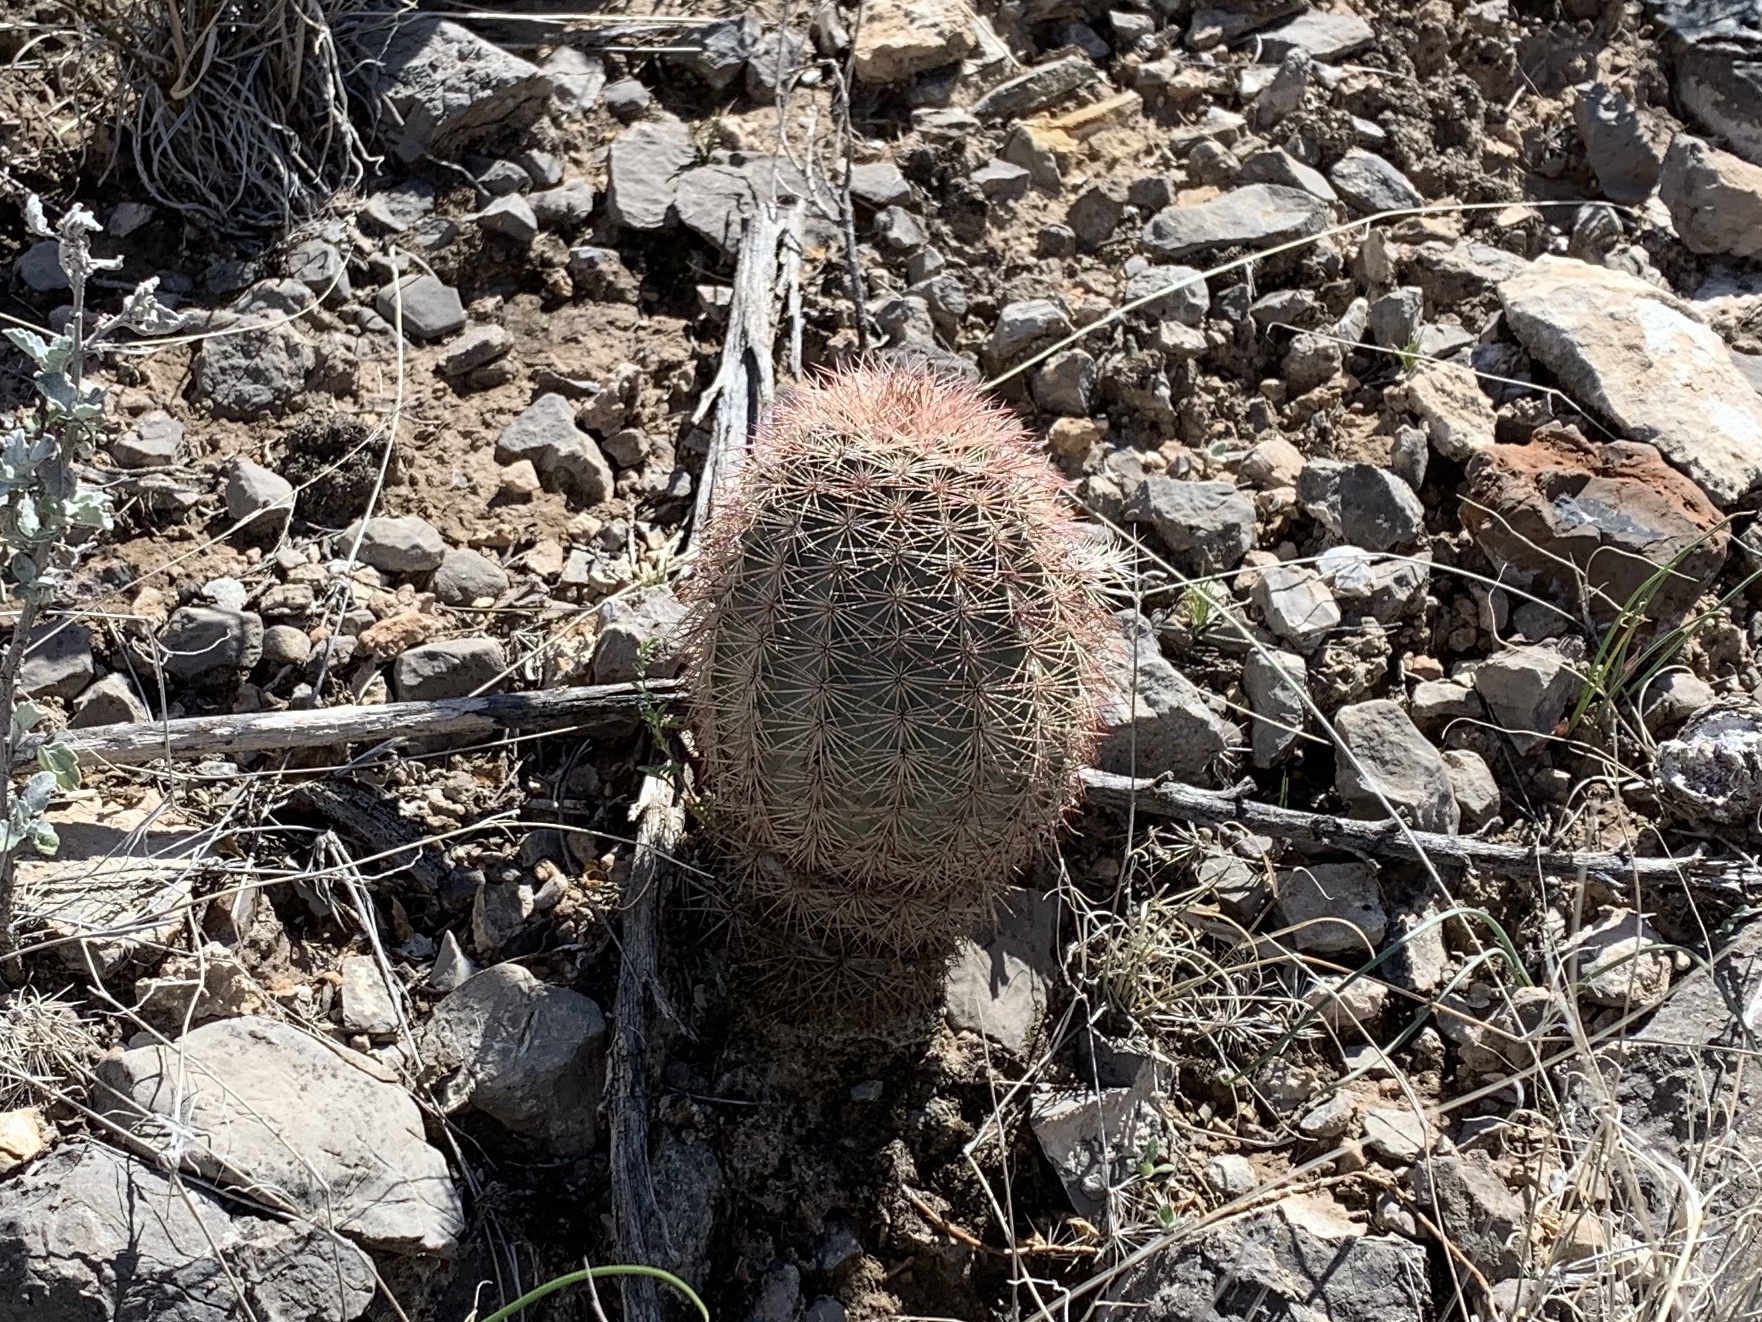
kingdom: Plantae
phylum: Tracheophyta
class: Magnoliopsida
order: Caryophyllales
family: Cactaceae
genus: Echinocereus
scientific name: Echinocereus dasyacanthus
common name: Spiny hedgehog cactus
